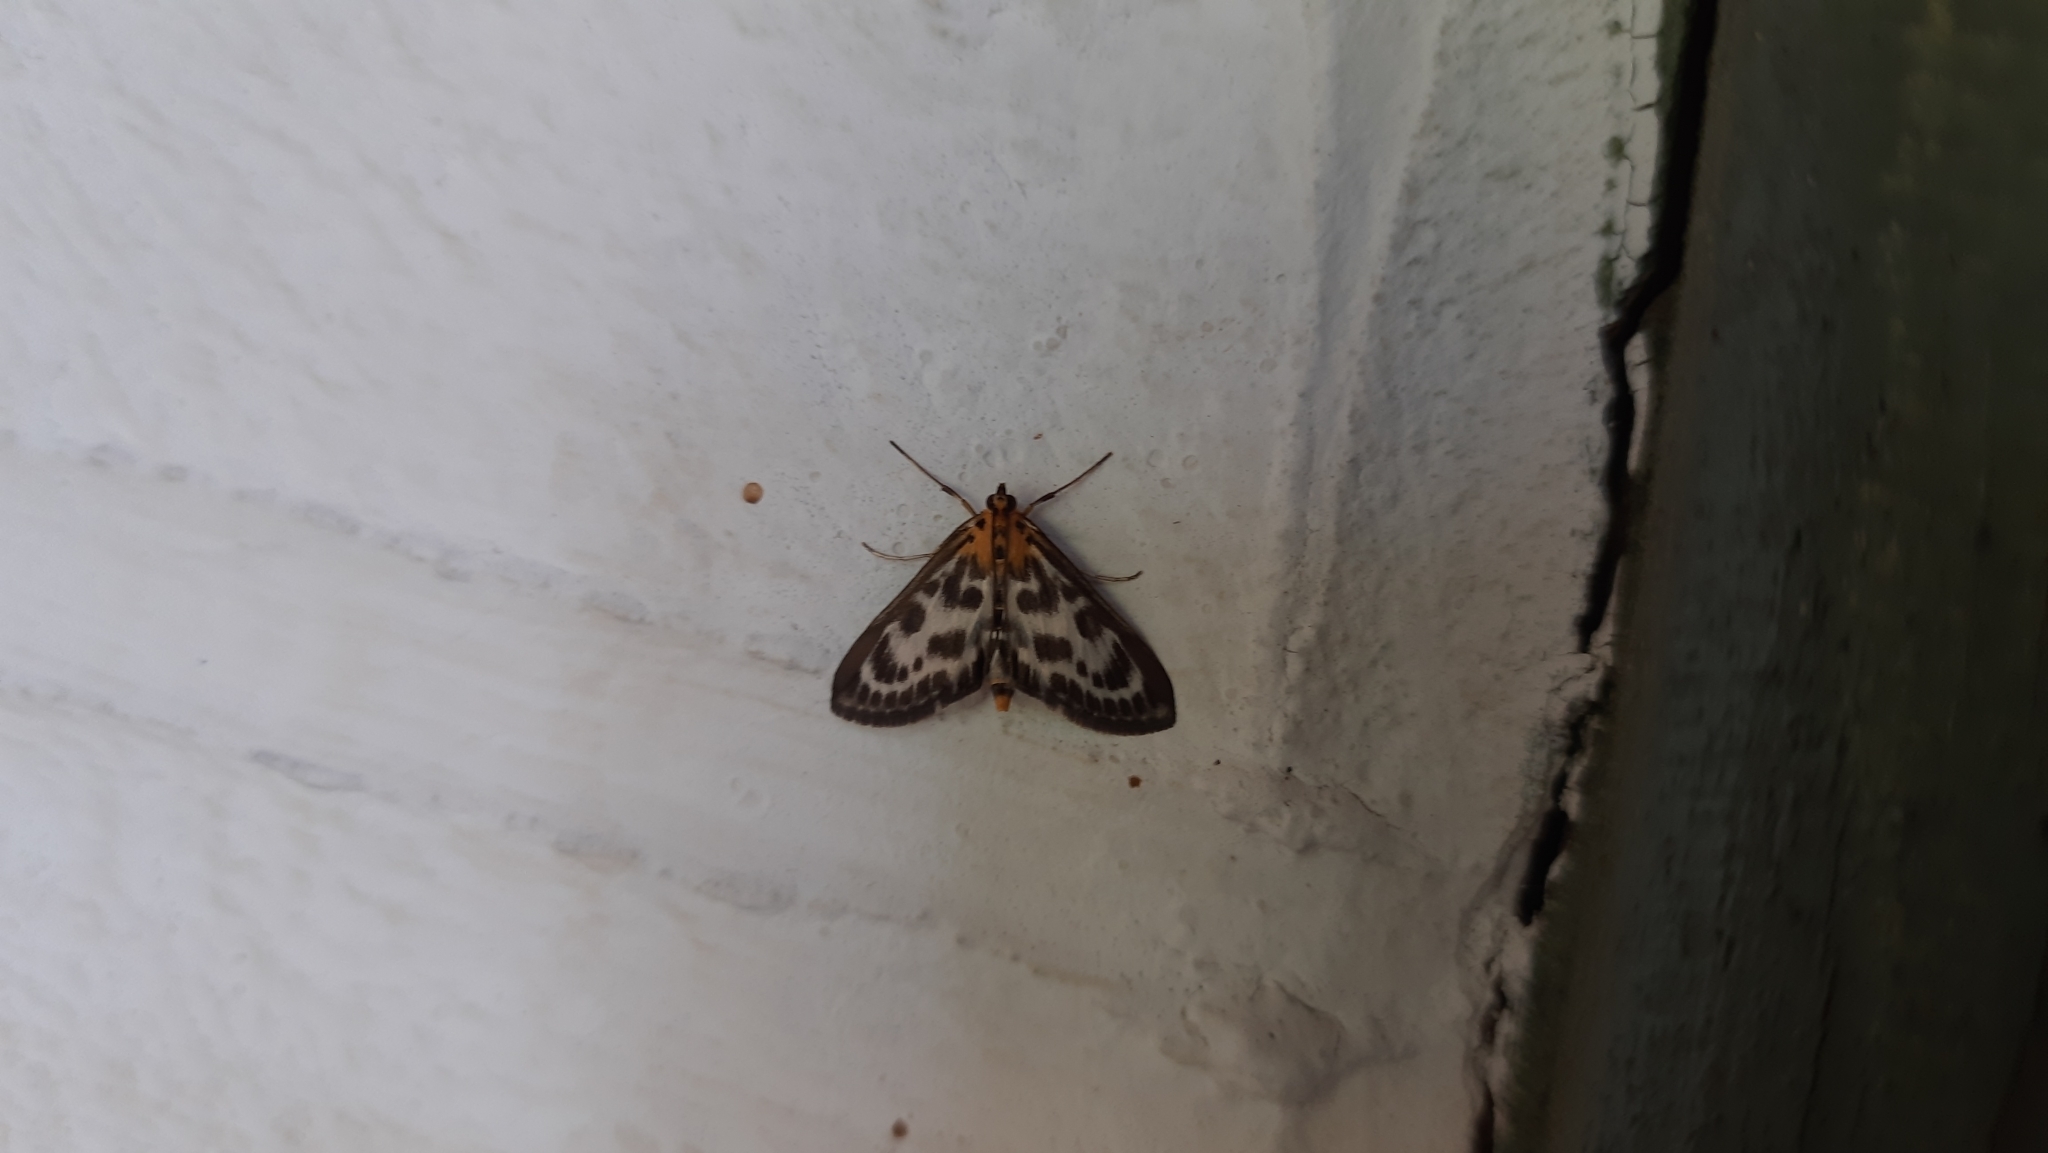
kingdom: Animalia
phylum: Arthropoda
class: Insecta
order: Lepidoptera
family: Crambidae
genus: Anania
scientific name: Anania hortulata
